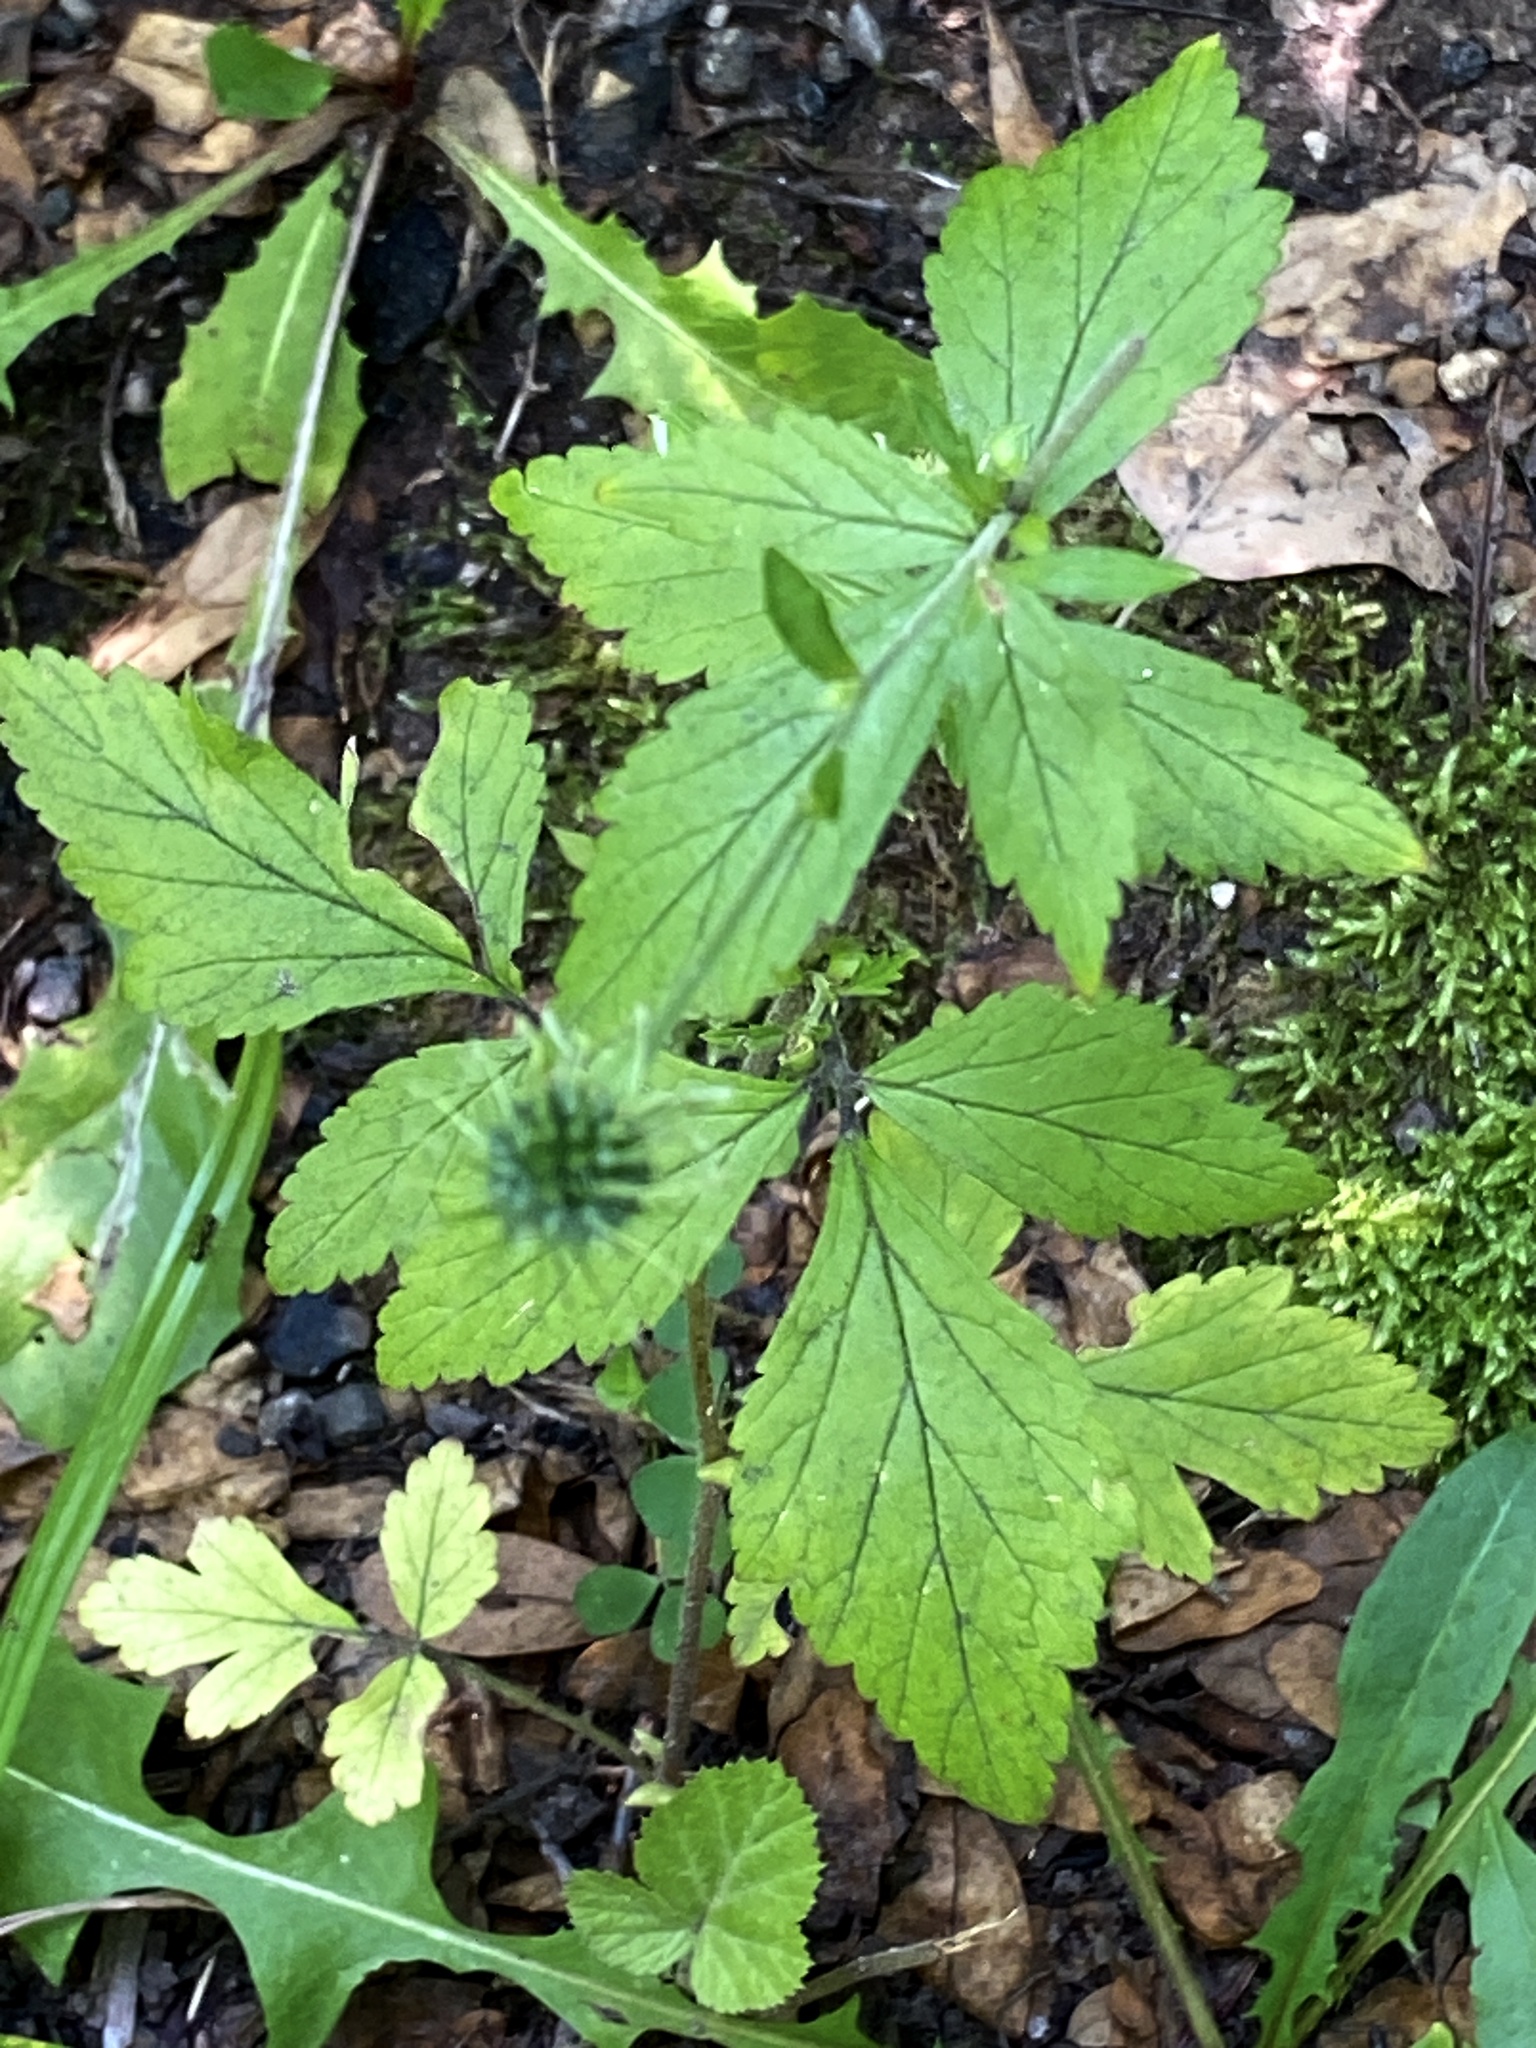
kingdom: Plantae
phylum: Tracheophyta
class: Magnoliopsida
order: Rosales
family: Rosaceae
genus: Geum
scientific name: Geum canadense
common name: White avens
